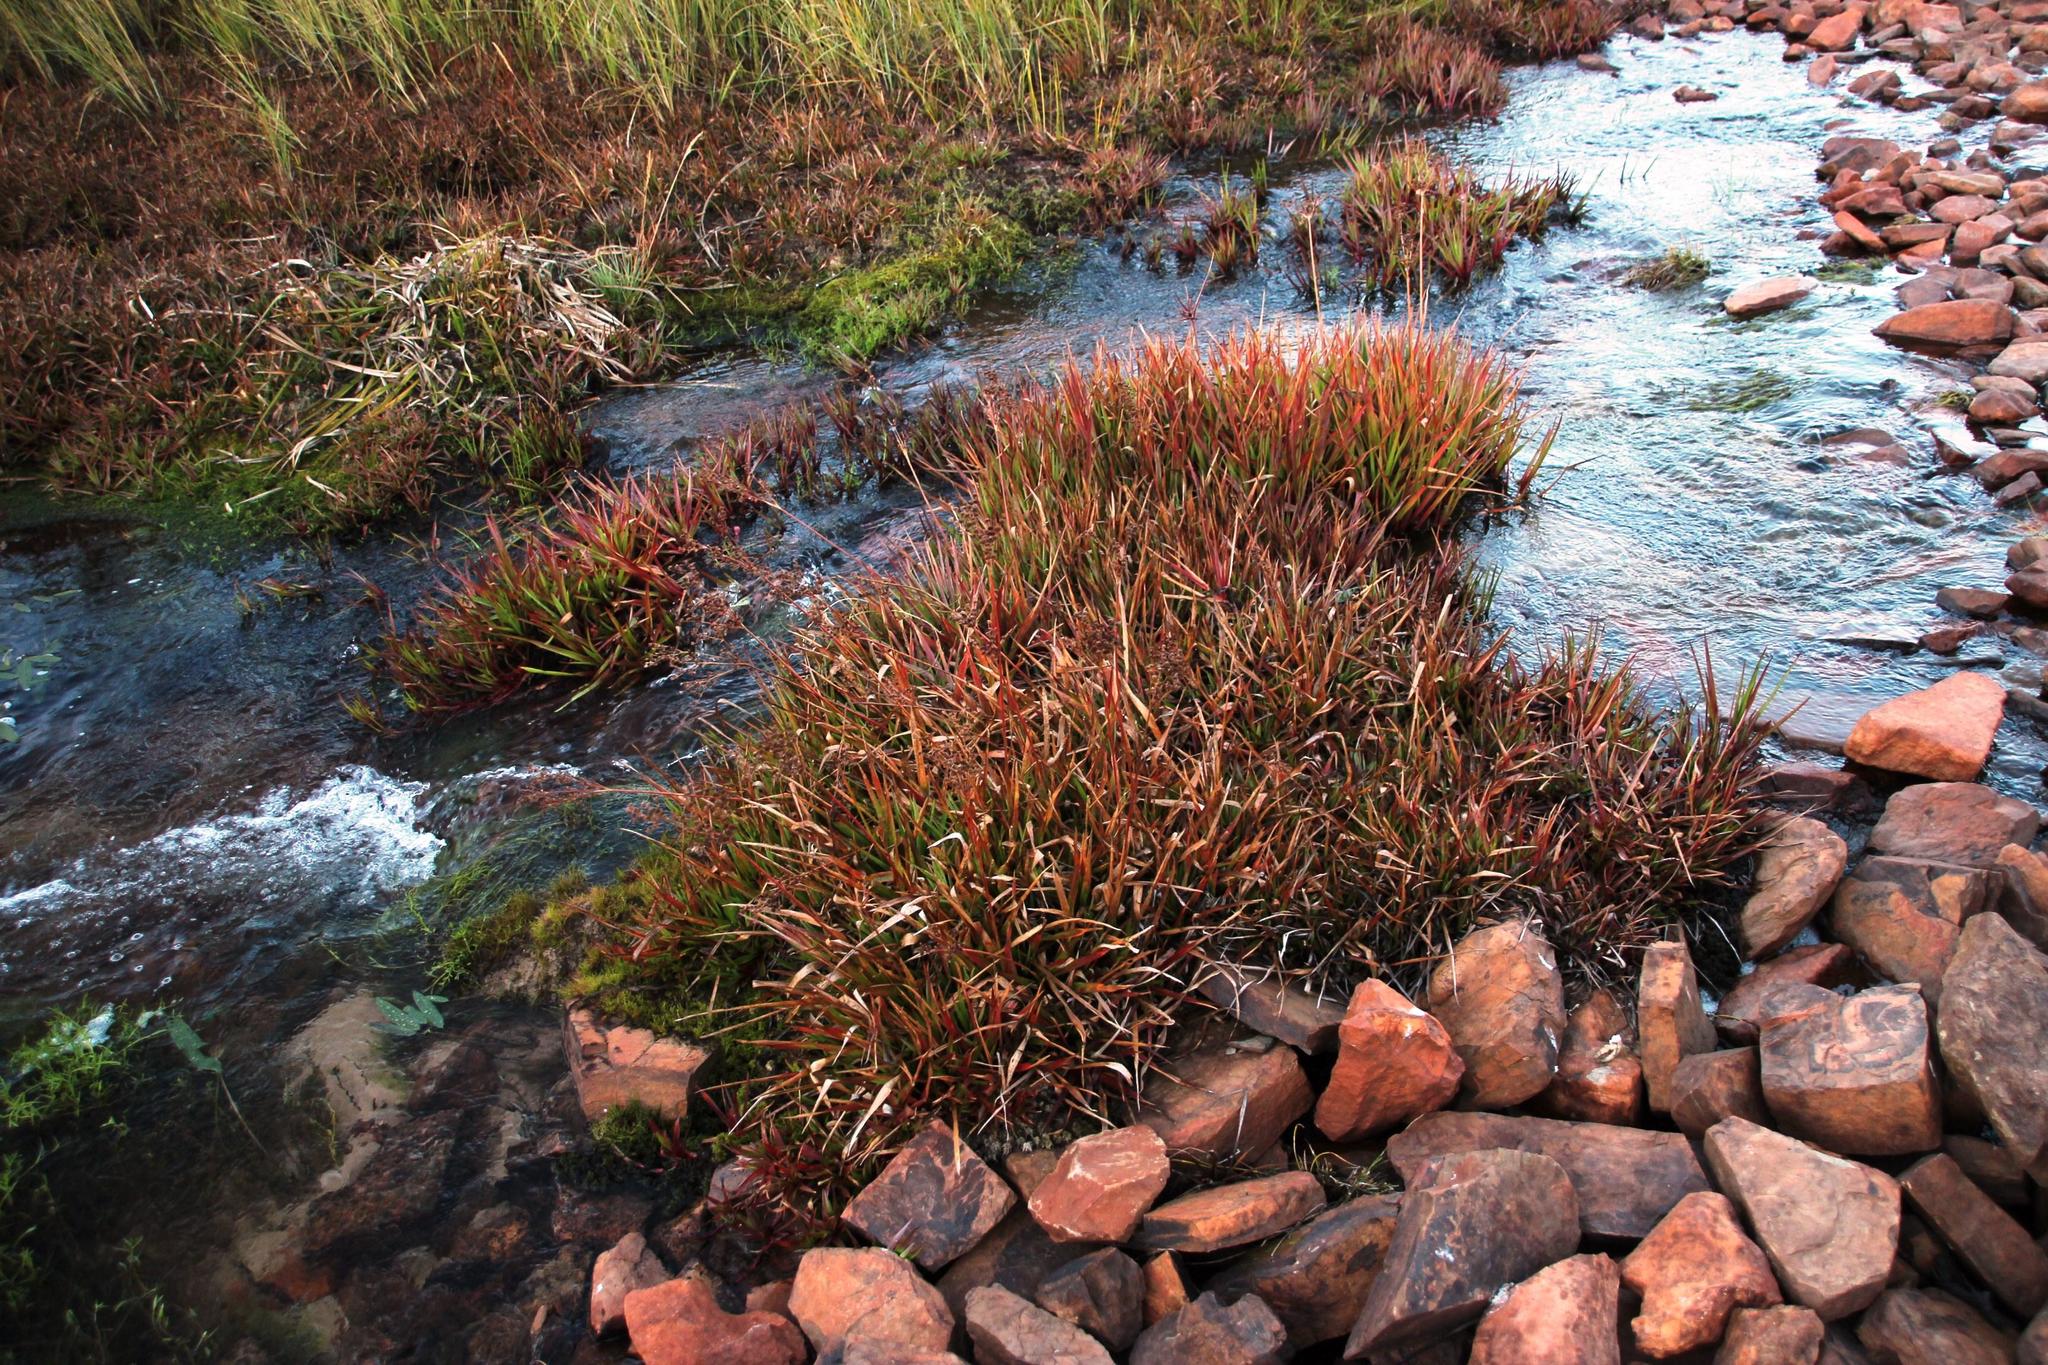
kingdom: Plantae
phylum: Tracheophyta
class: Liliopsida
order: Poales
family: Juncaceae
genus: Juncus
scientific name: Juncus lomatophyllus
